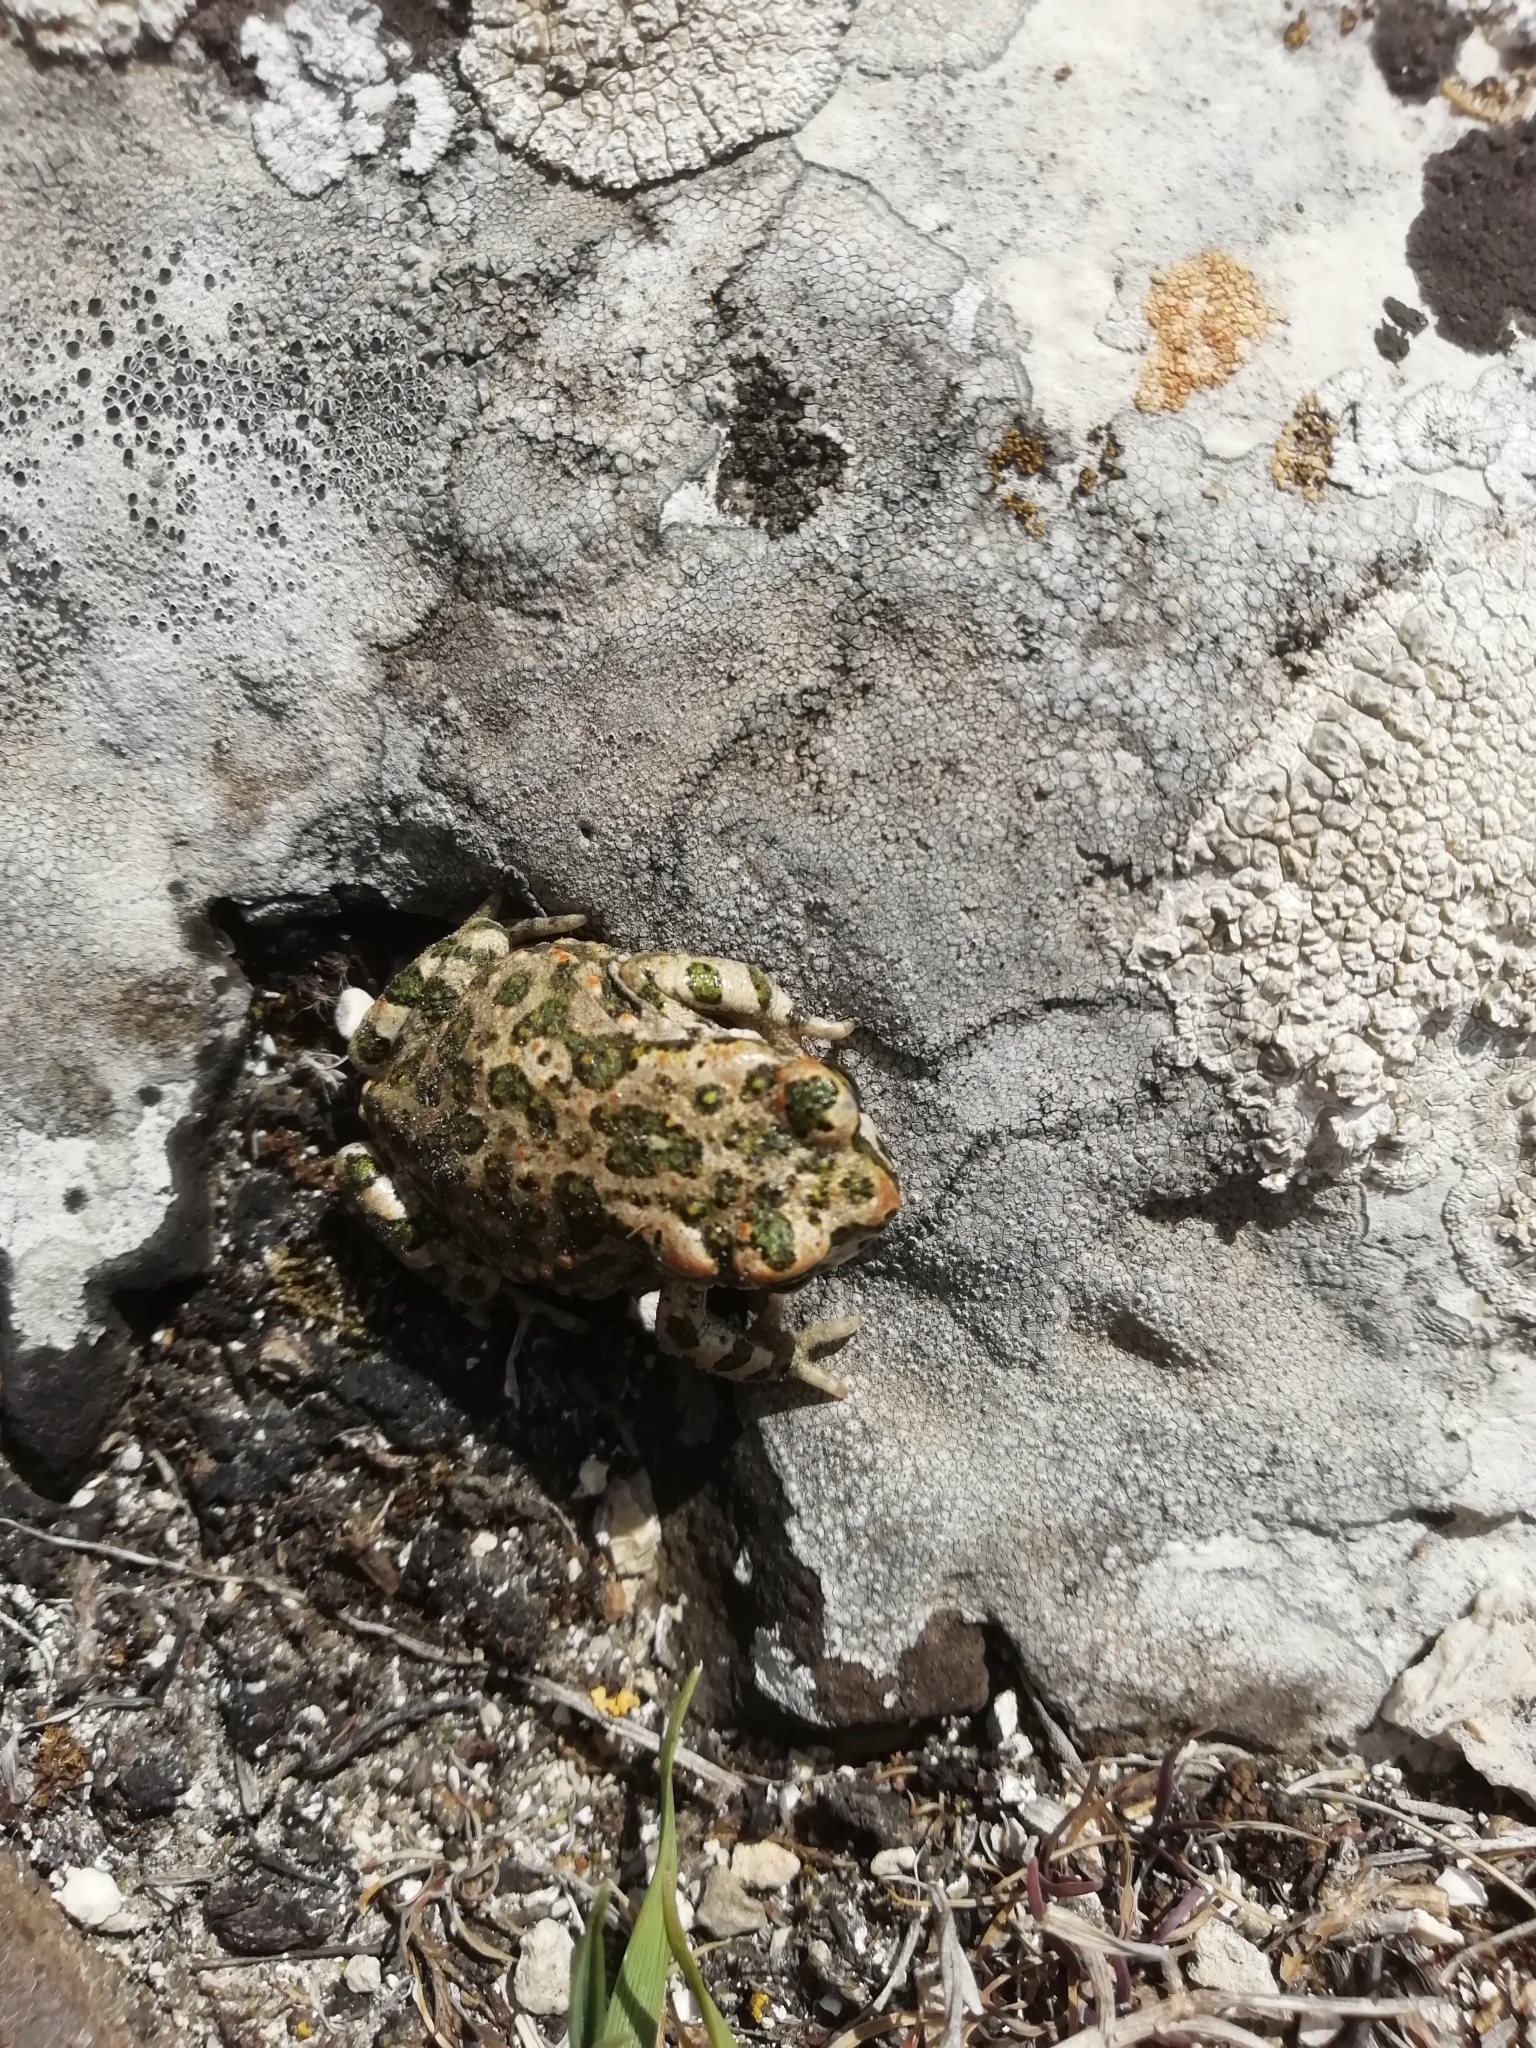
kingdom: Animalia
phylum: Chordata
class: Amphibia
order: Anura
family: Bufonidae
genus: Bufotes
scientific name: Bufotes viridis
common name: European green toad
